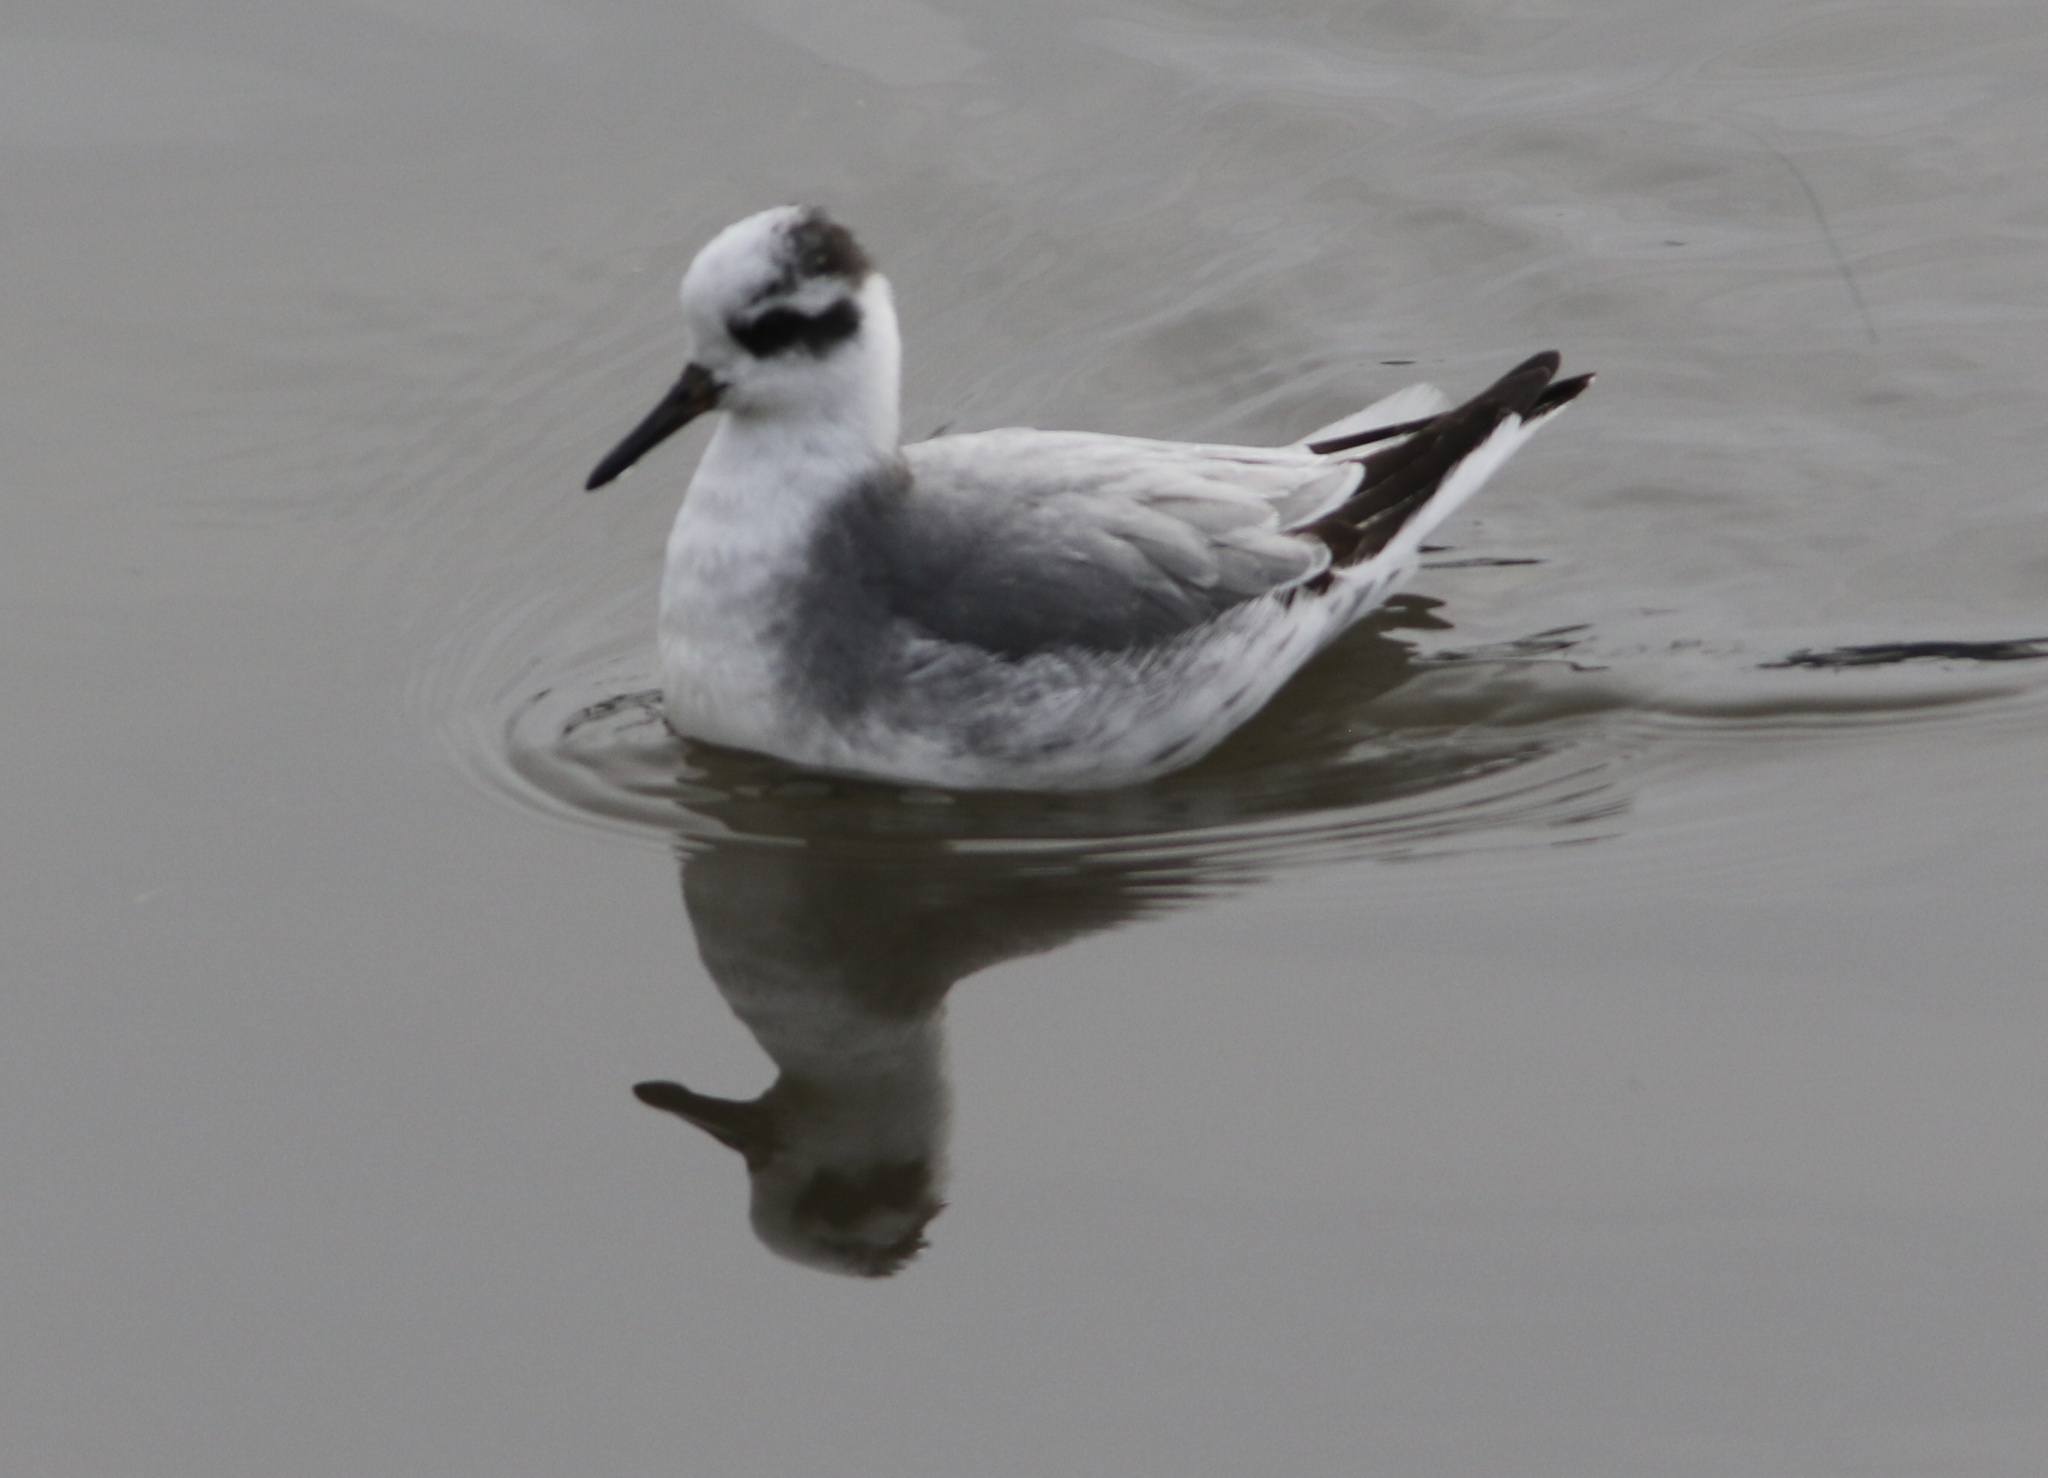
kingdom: Animalia
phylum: Chordata
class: Aves
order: Charadriiformes
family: Scolopacidae
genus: Phalaropus
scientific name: Phalaropus fulicarius
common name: Red phalarope
